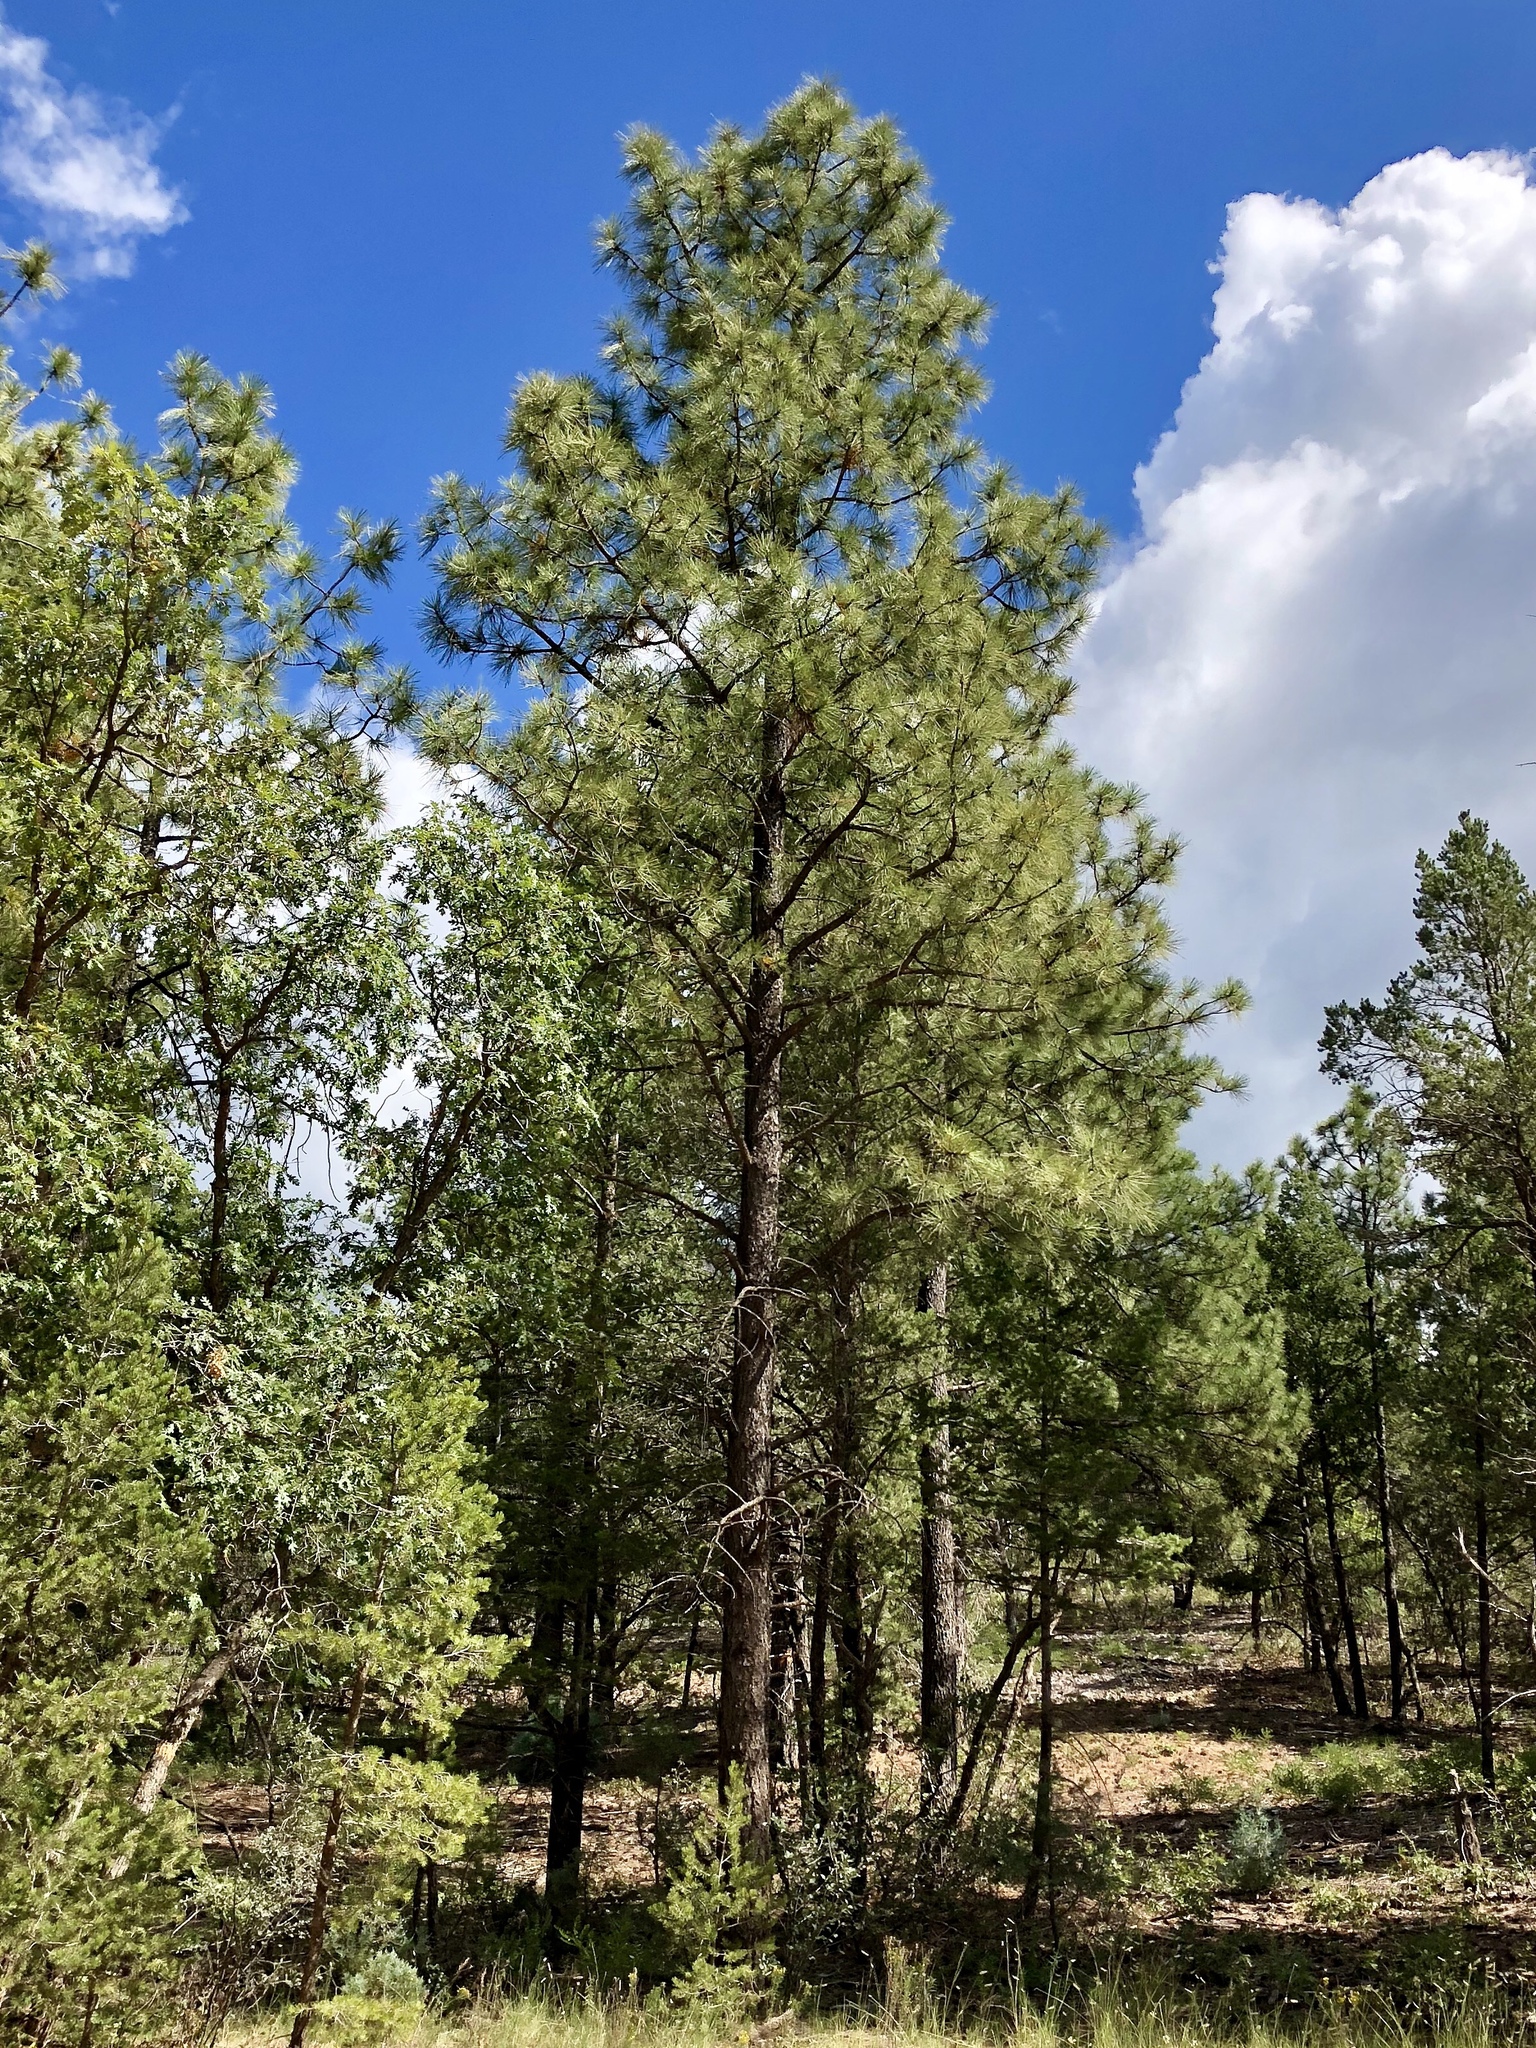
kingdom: Plantae
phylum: Tracheophyta
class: Pinopsida
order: Pinales
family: Pinaceae
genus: Pinus
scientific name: Pinus ponderosa
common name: Western yellow-pine
